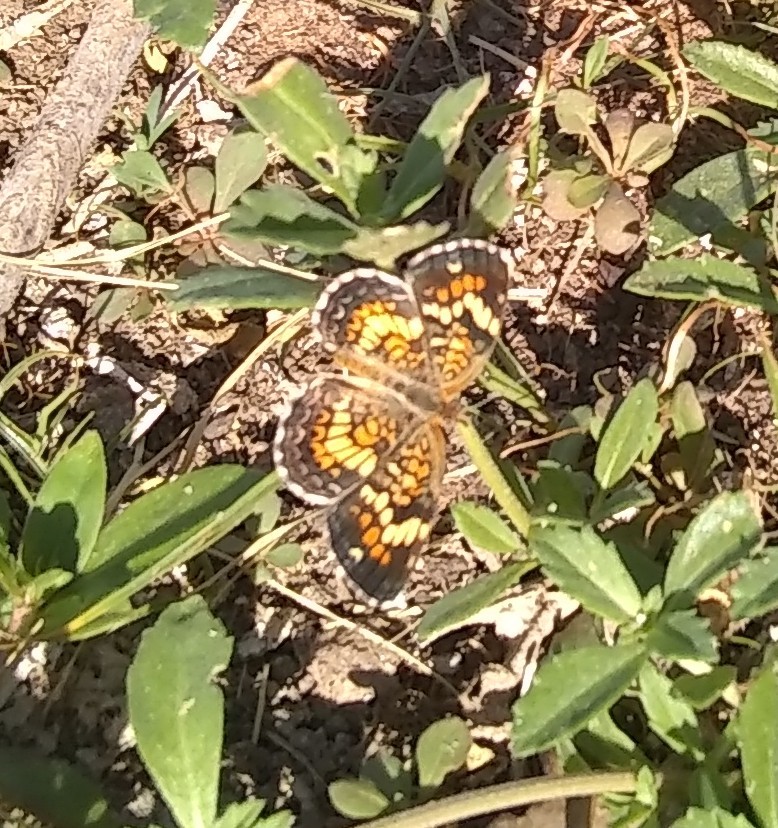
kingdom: Animalia
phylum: Arthropoda
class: Insecta
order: Lepidoptera
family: Nymphalidae
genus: Phyciodes
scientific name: Phyciodes phaon
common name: Phaon crescent
